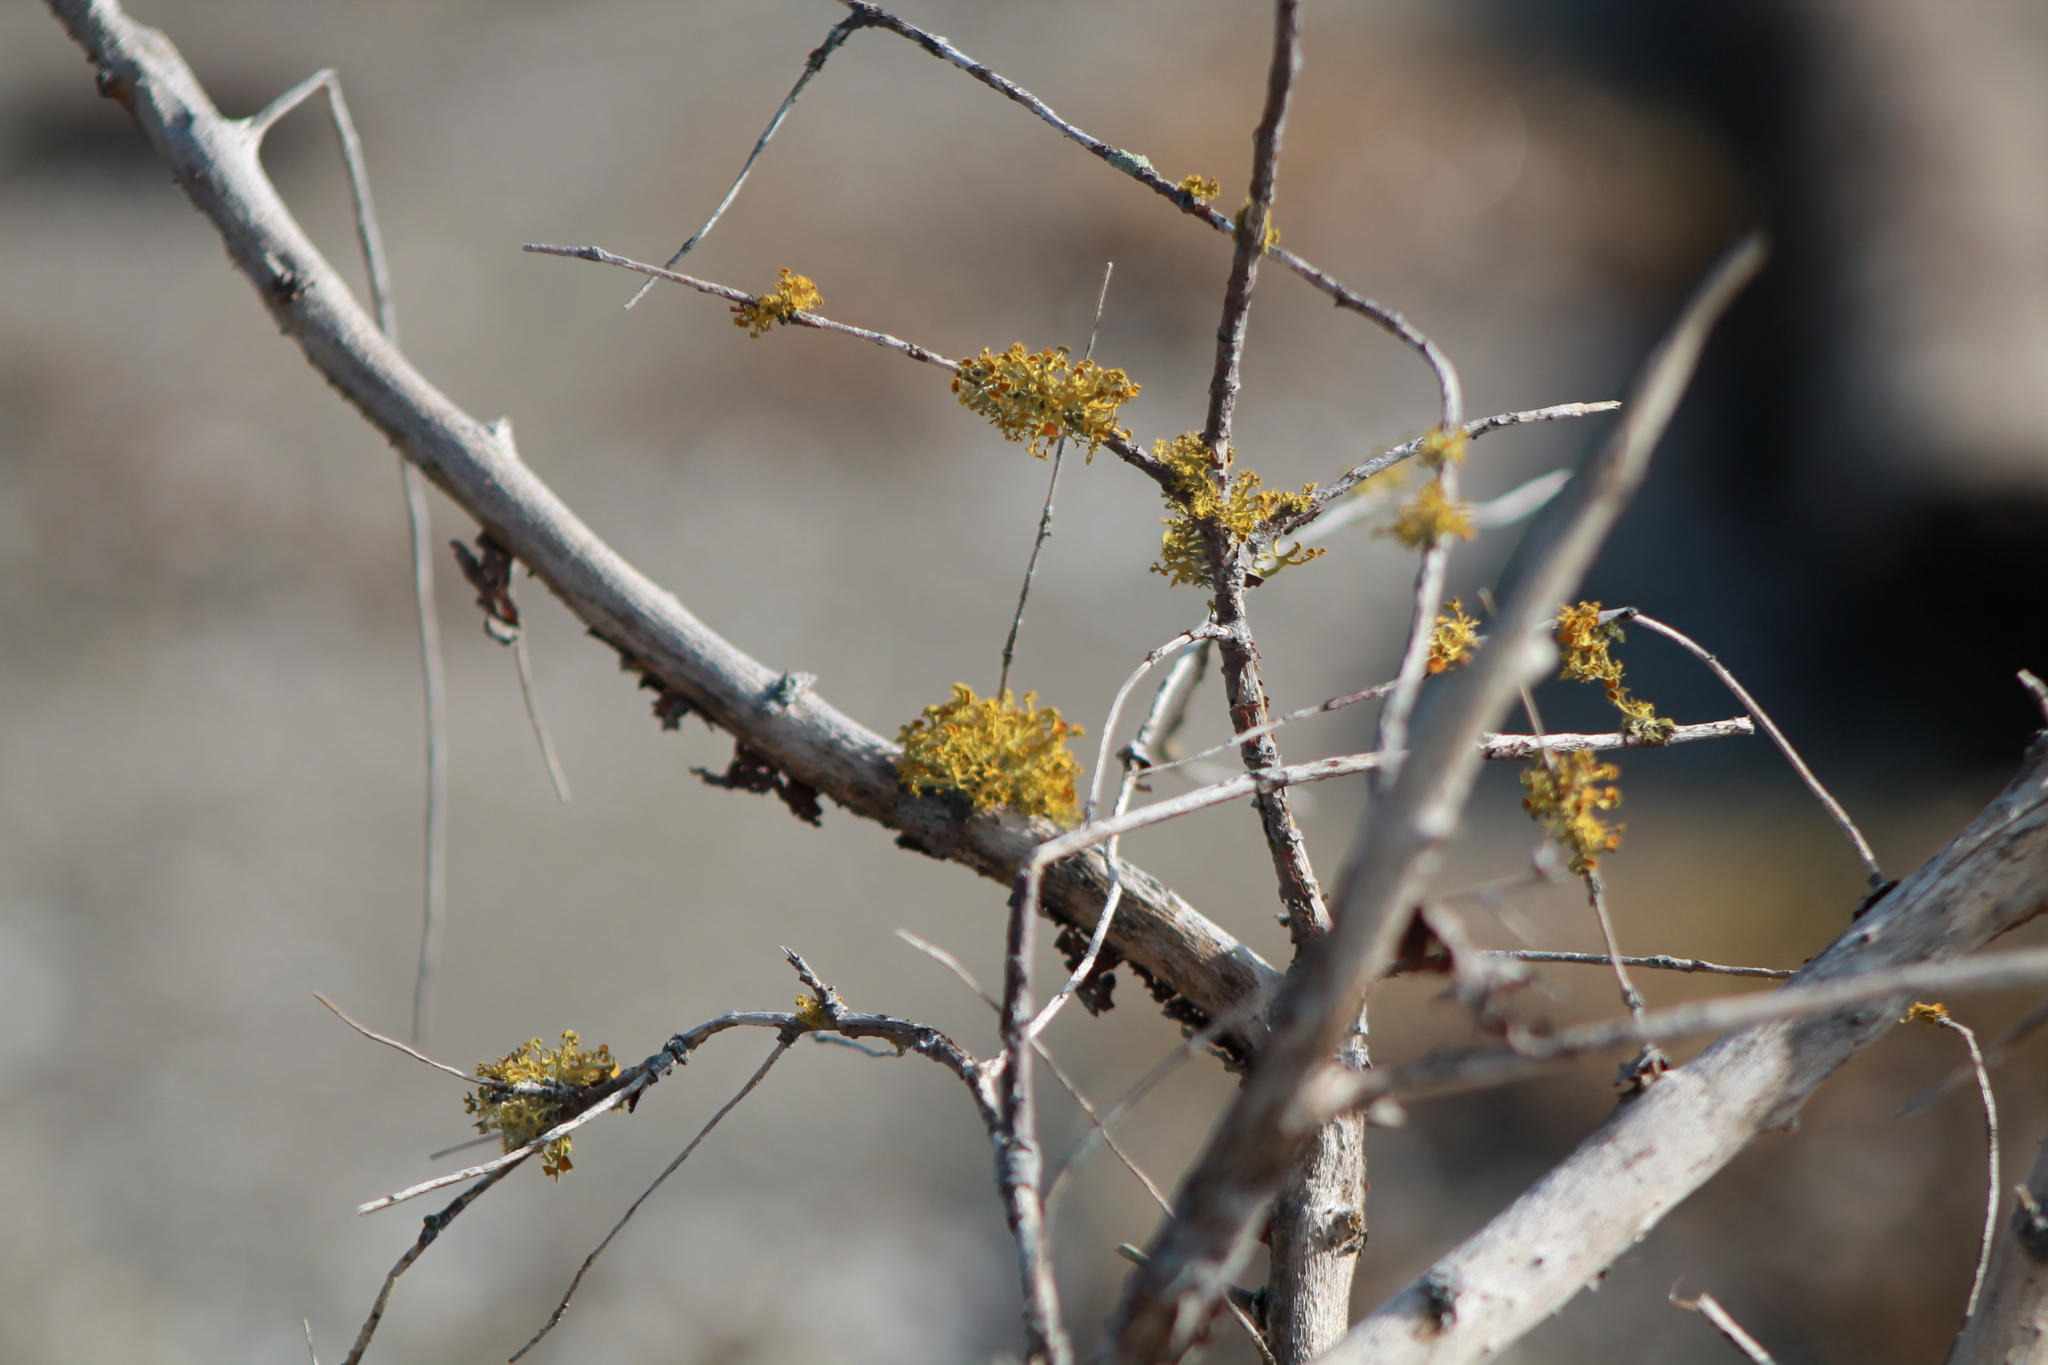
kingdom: Fungi
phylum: Ascomycota
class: Lecanoromycetes
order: Teloschistales
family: Teloschistaceae
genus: Niorma
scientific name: Niorma chrysophthalma
